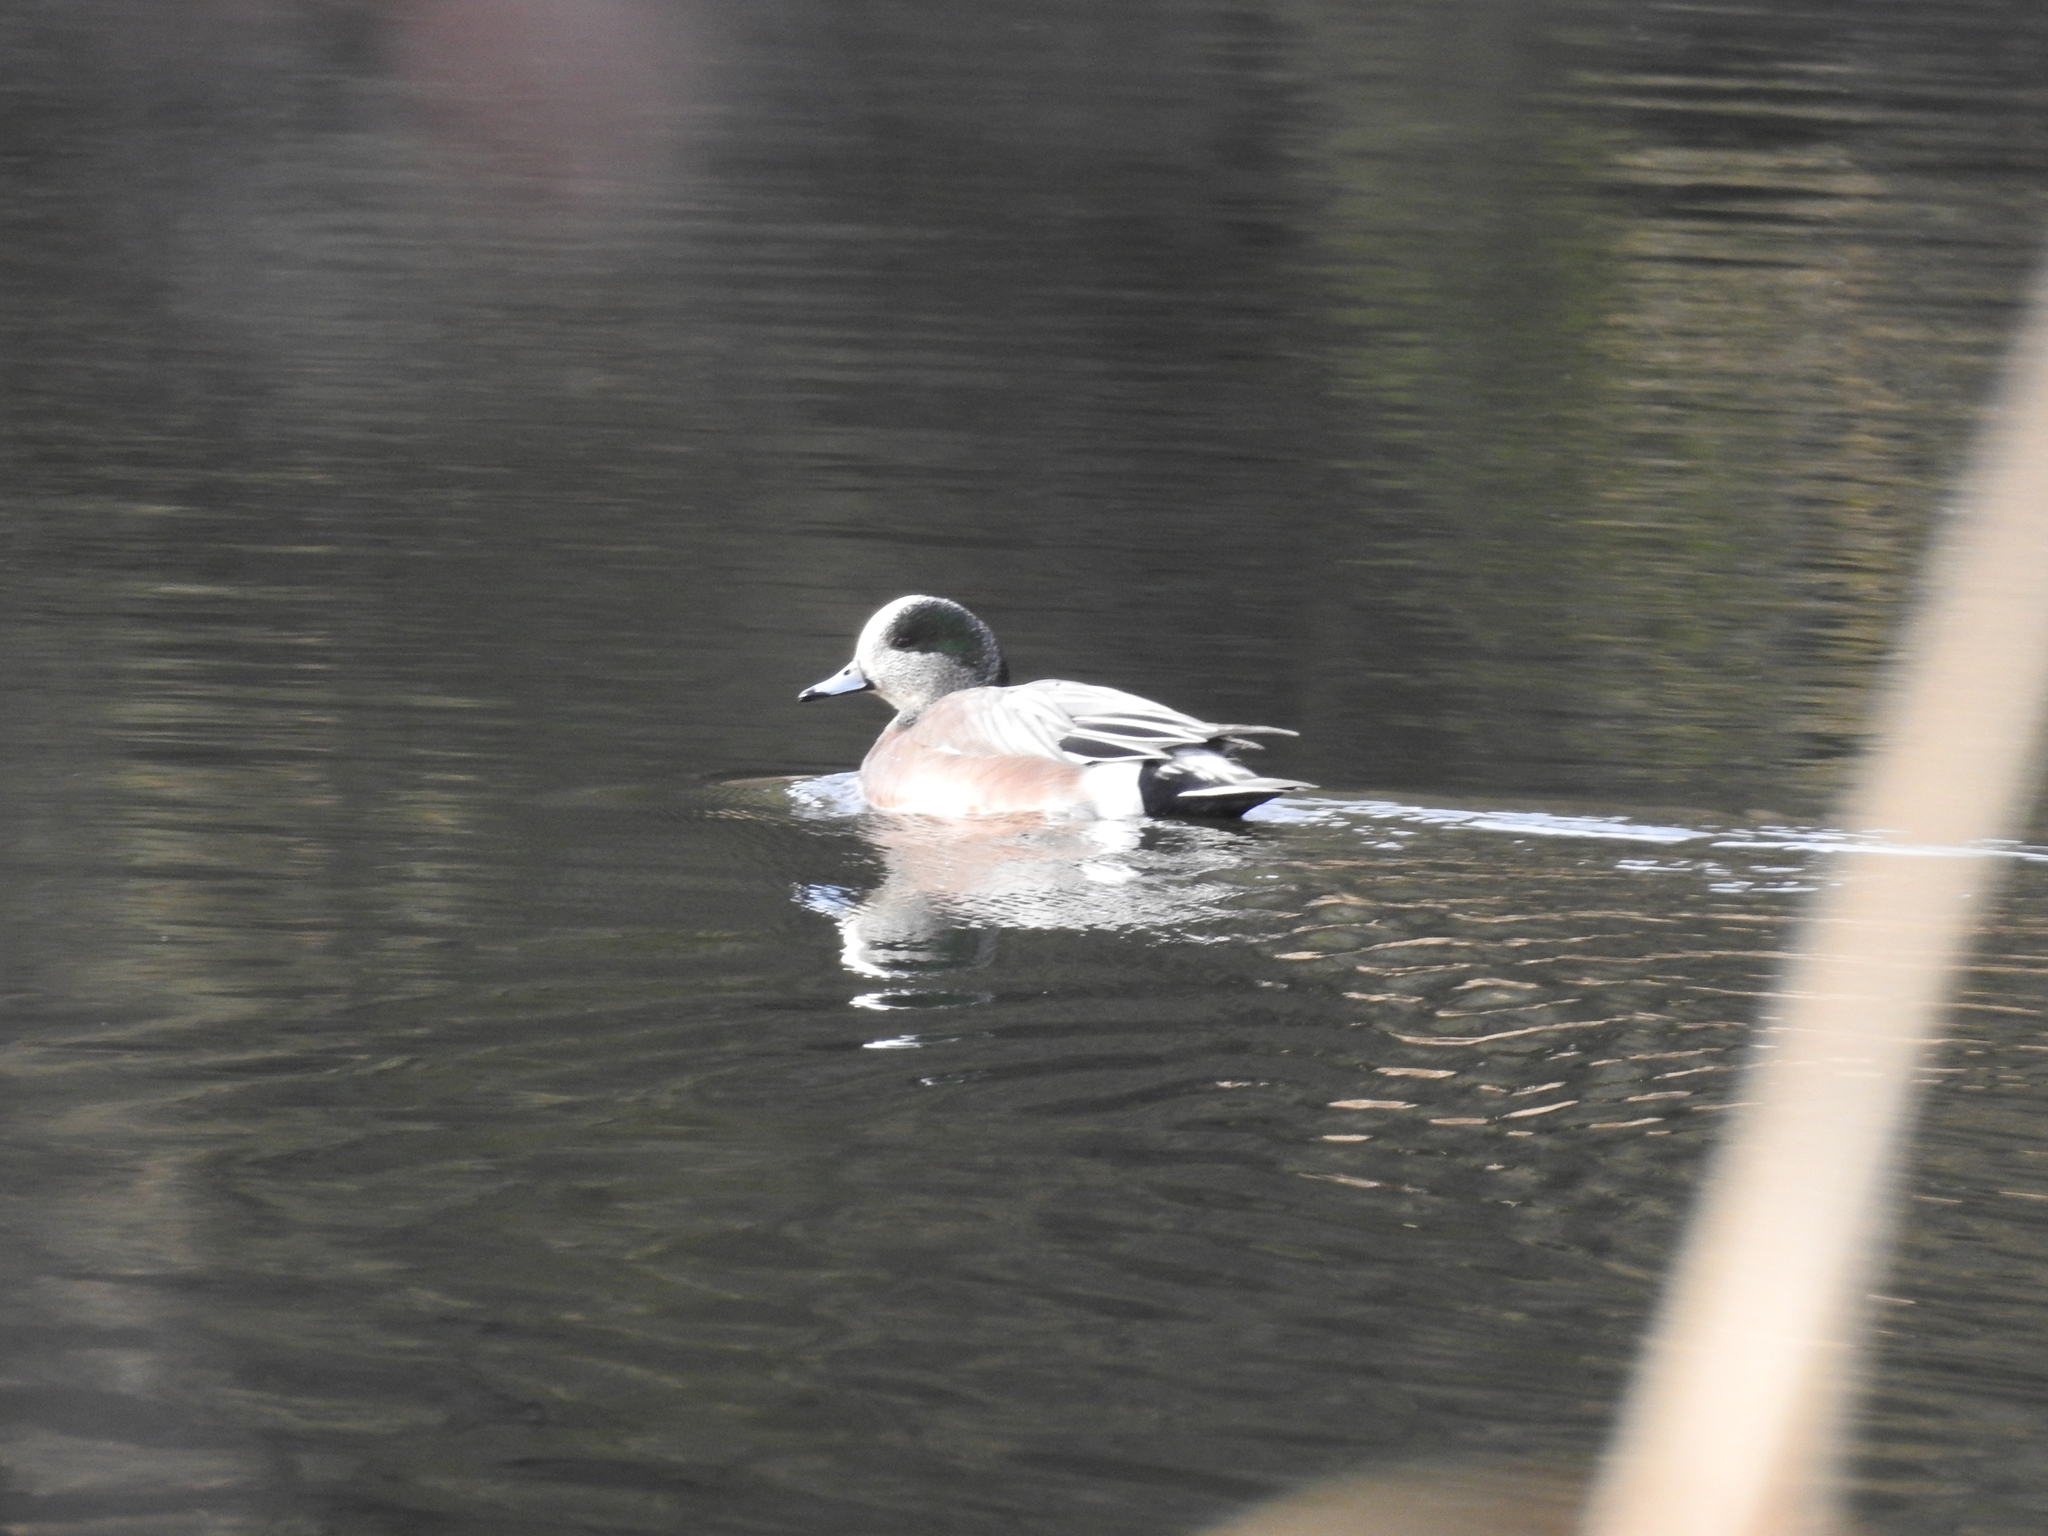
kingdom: Animalia
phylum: Chordata
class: Aves
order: Anseriformes
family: Anatidae
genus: Mareca
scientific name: Mareca americana
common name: American wigeon
